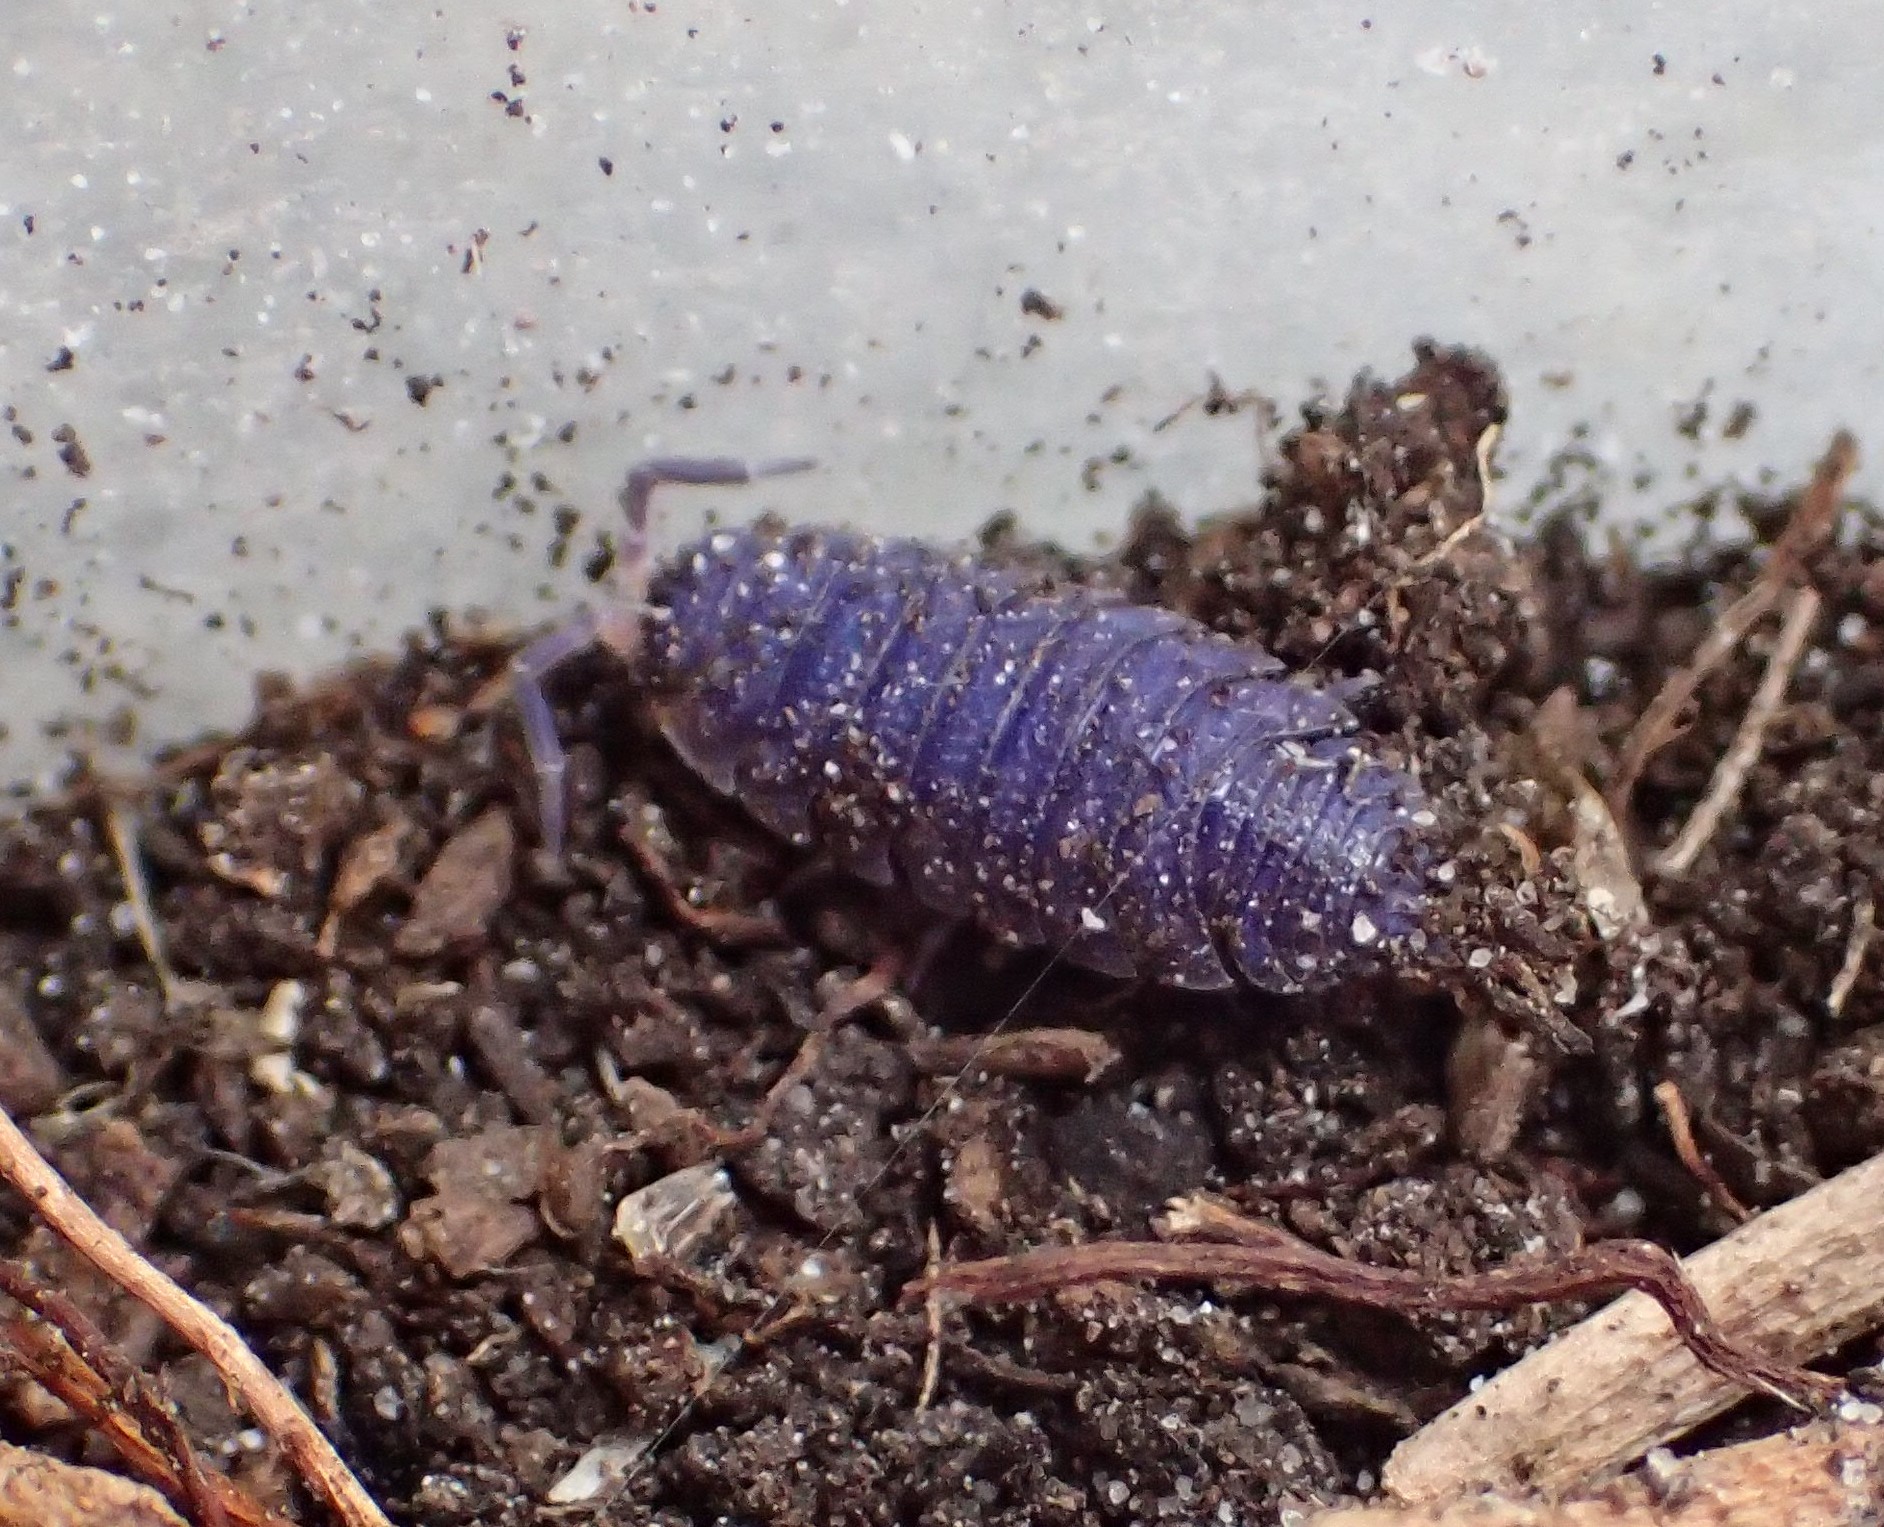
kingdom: Viruses
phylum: Nucleocytoviricota
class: Megaviricetes
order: Pimascovirales
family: Iridoviridae
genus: Iridovirus
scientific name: Iridovirus Invertebrate iridescent virus 31
